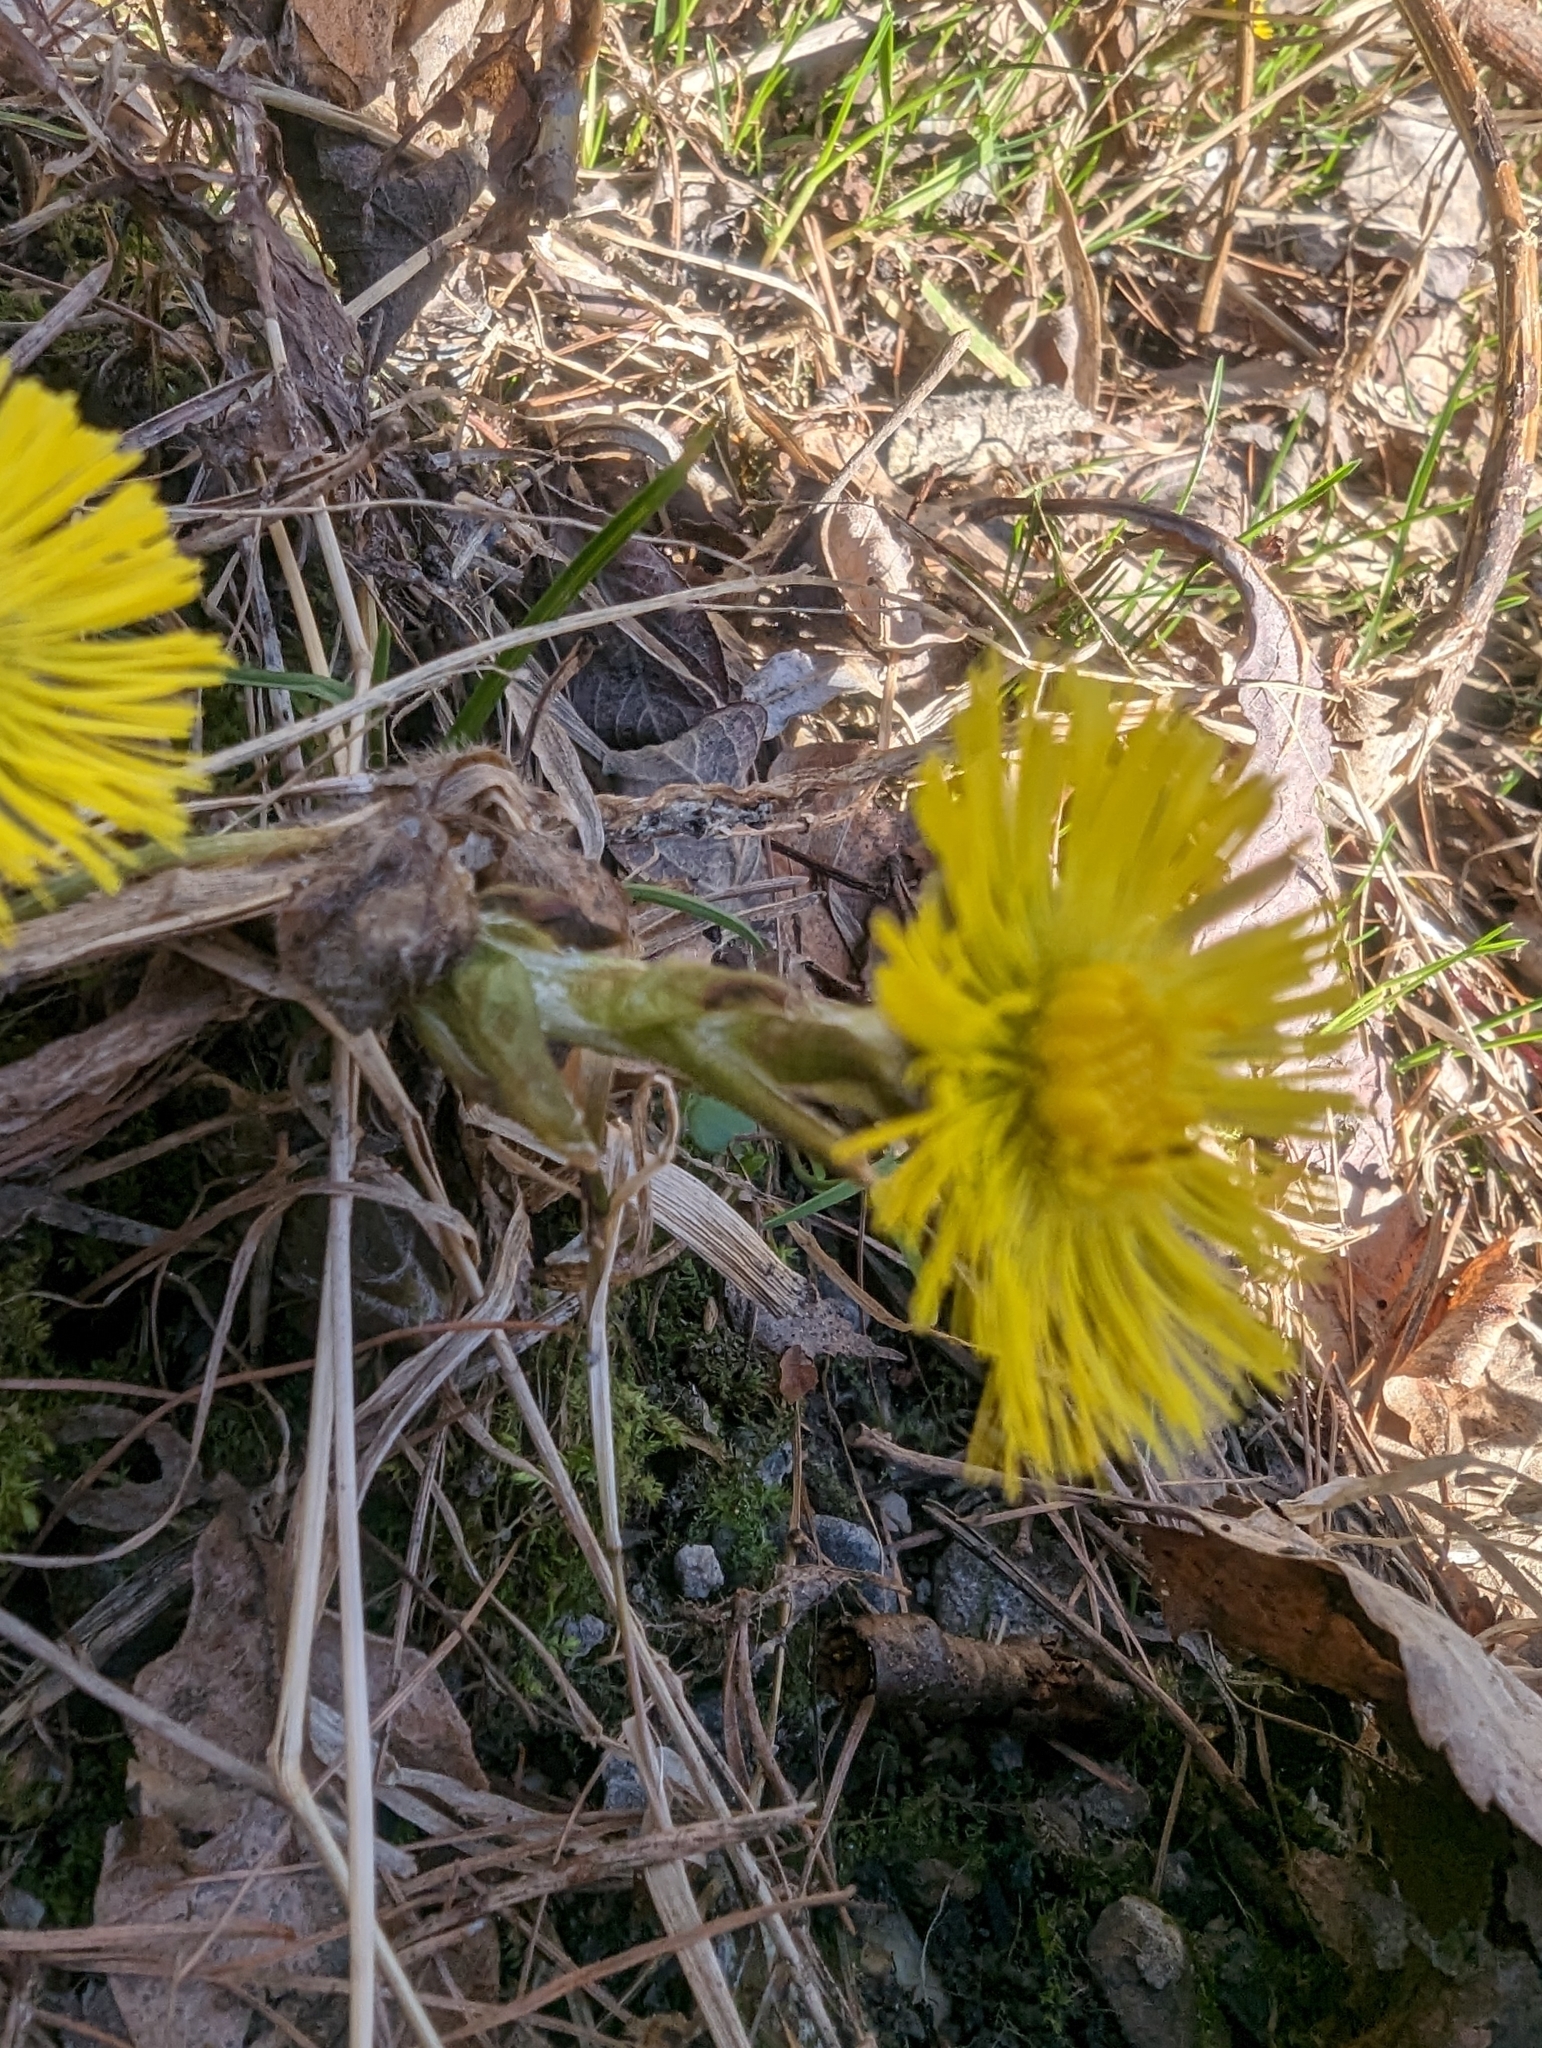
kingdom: Plantae
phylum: Tracheophyta
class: Magnoliopsida
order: Asterales
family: Asteraceae
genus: Tussilago
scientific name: Tussilago farfara
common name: Coltsfoot
